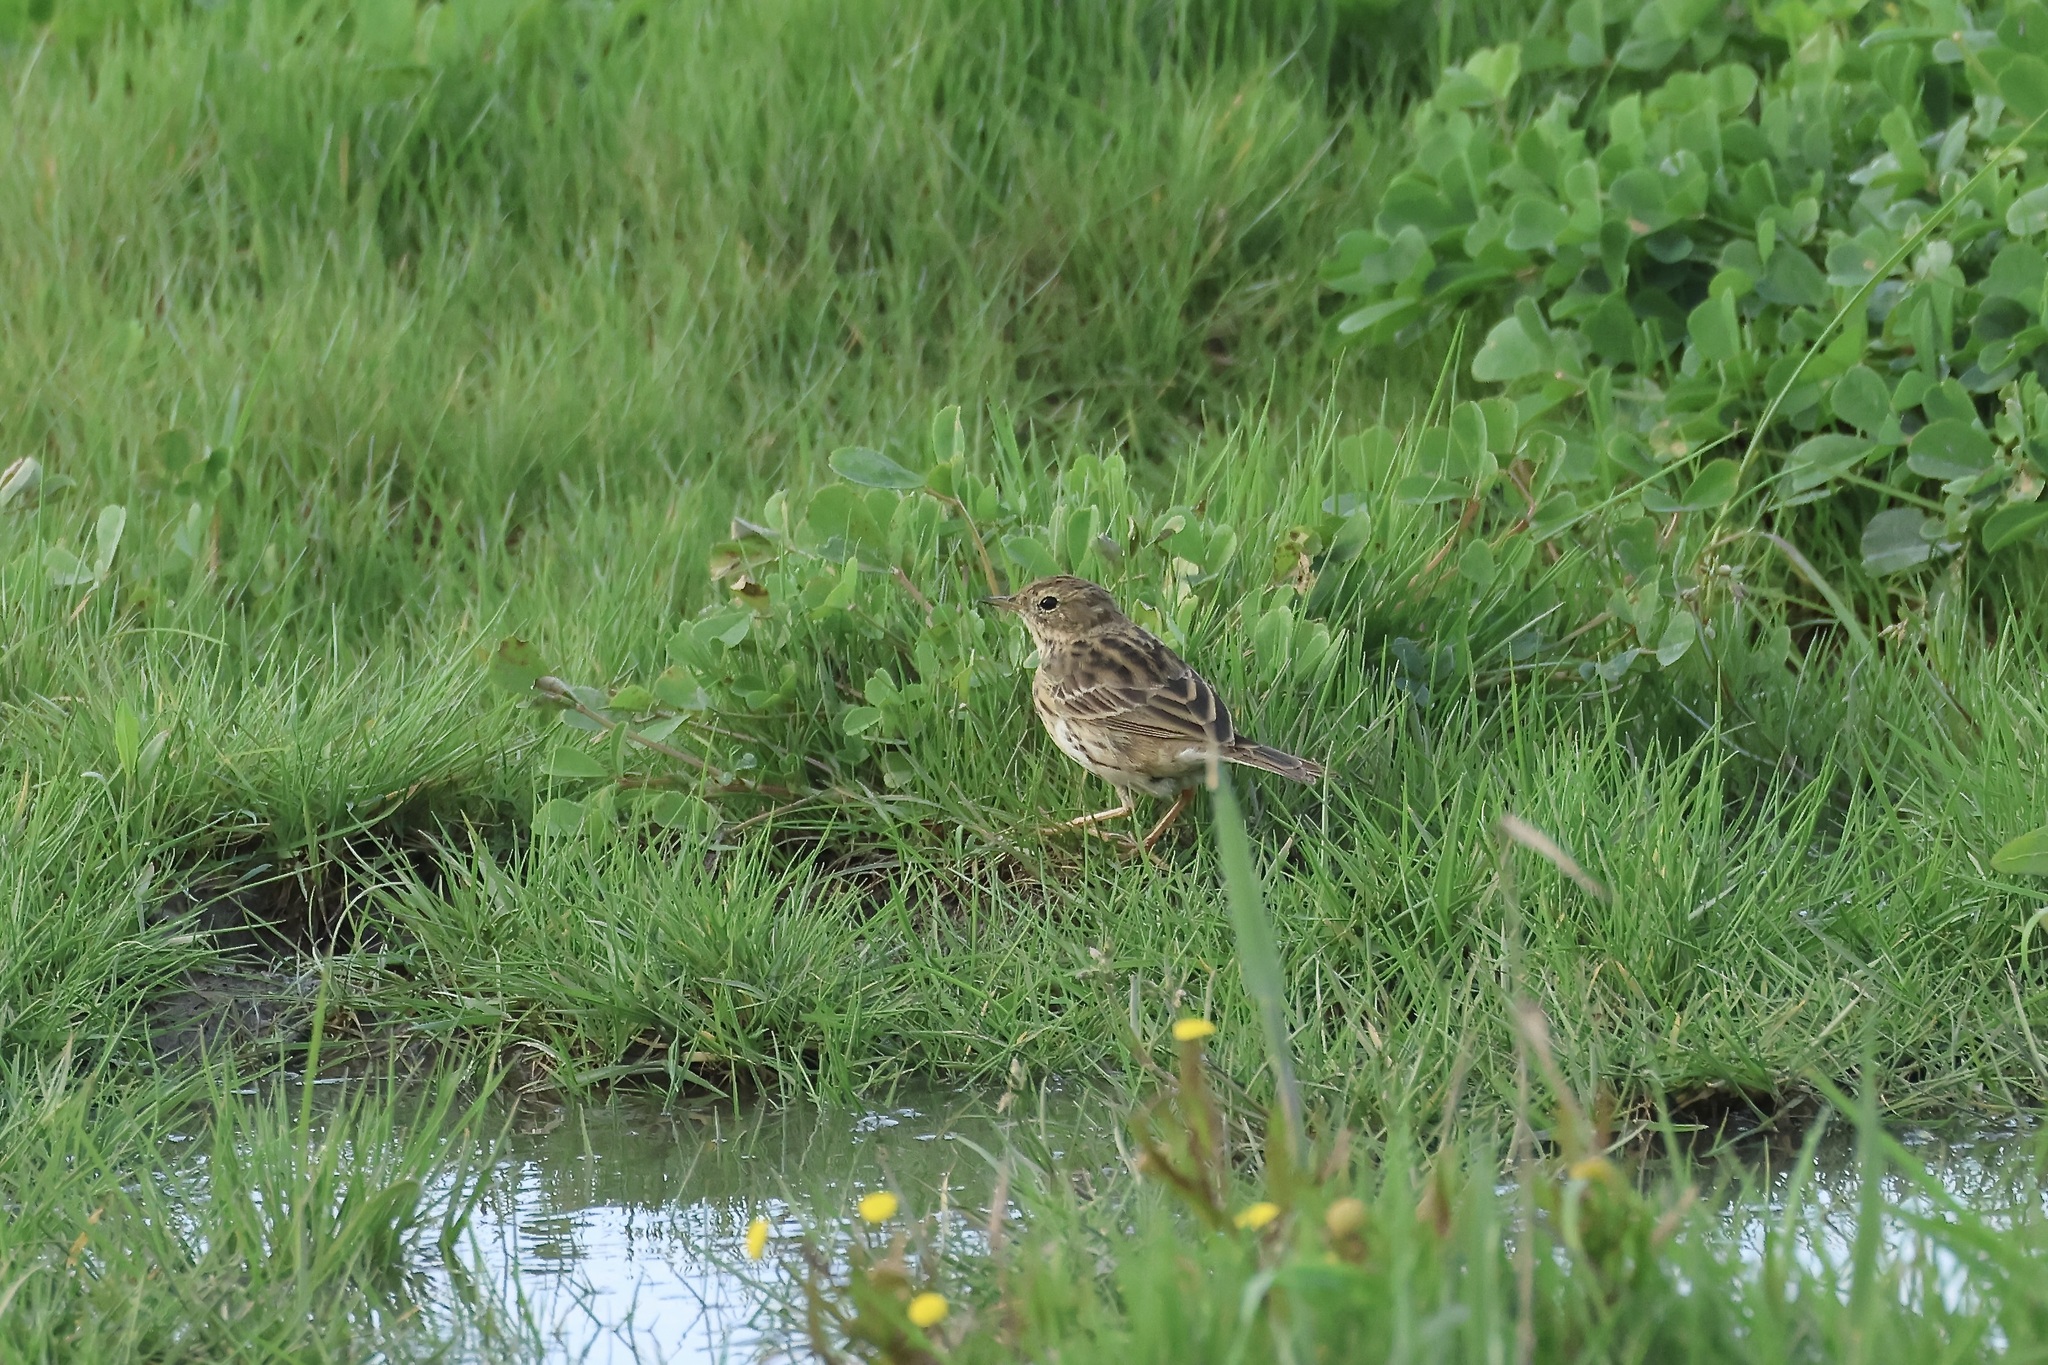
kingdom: Animalia
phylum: Chordata
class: Aves
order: Passeriformes
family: Motacillidae
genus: Anthus
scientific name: Anthus pratensis
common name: Meadow pipit
